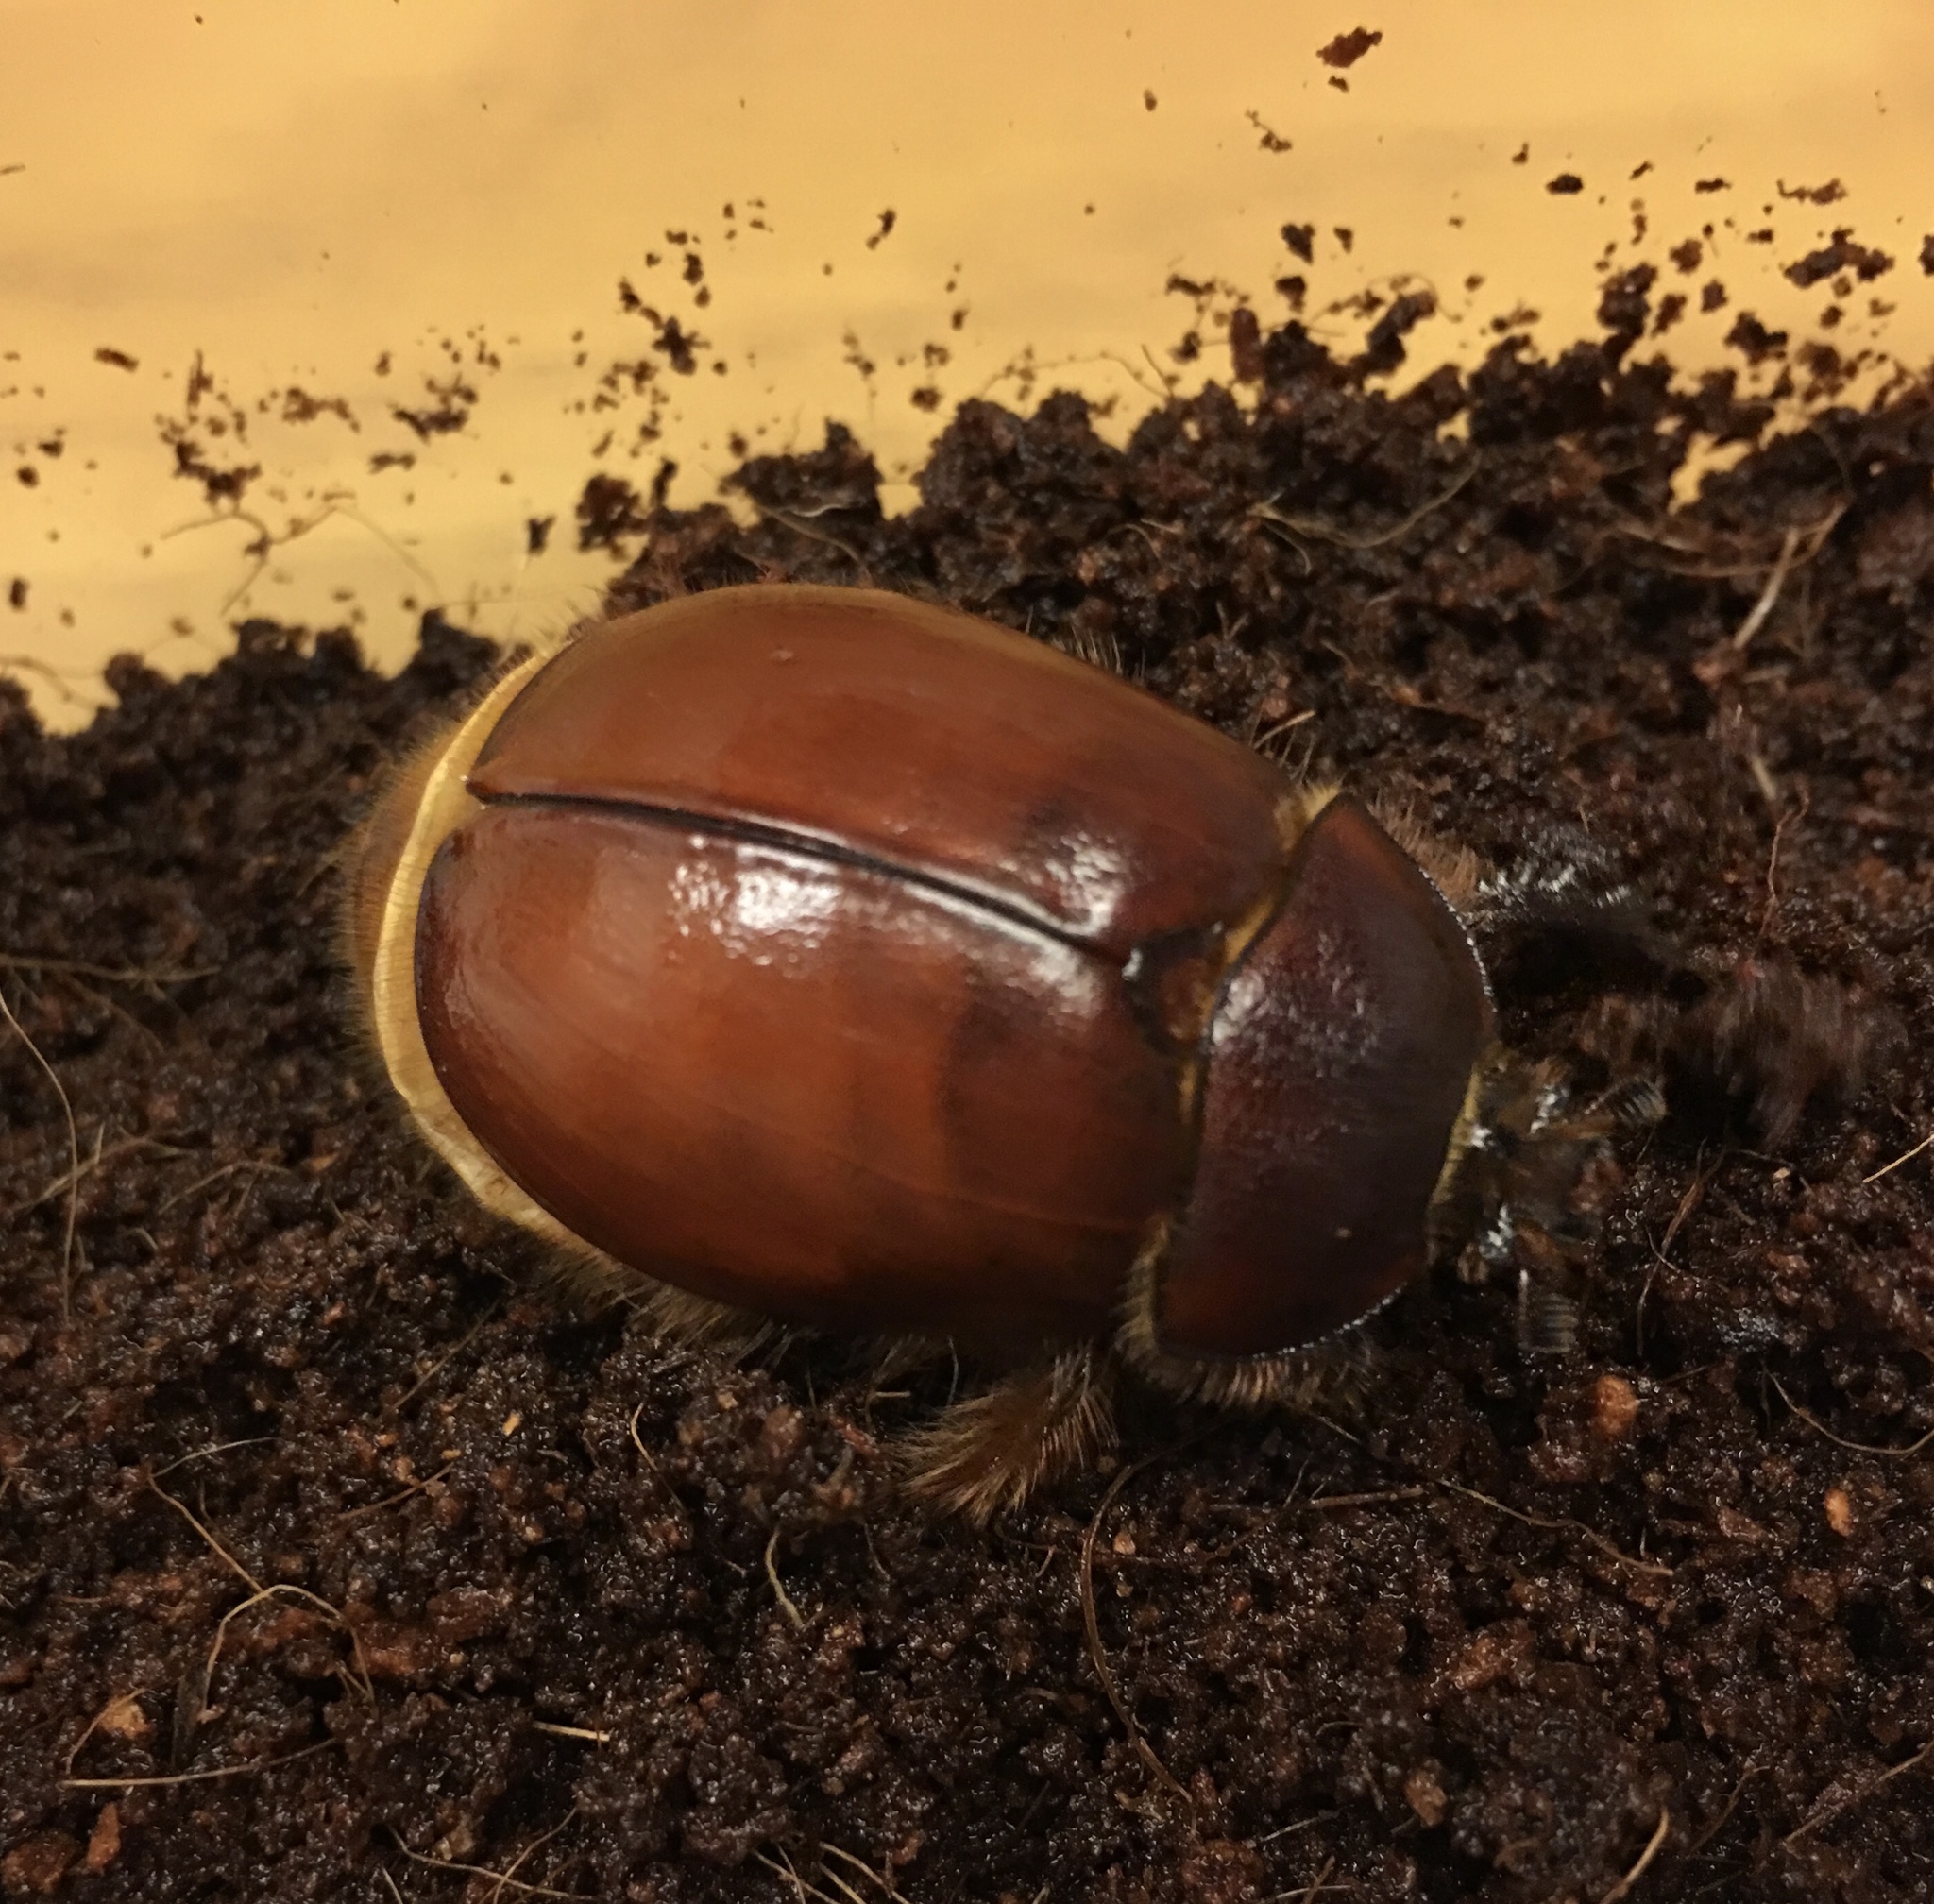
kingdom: Animalia
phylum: Arthropoda
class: Insecta
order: Coleoptera
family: Pleocomidae
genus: Pleocoma
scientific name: Pleocoma octopagina
